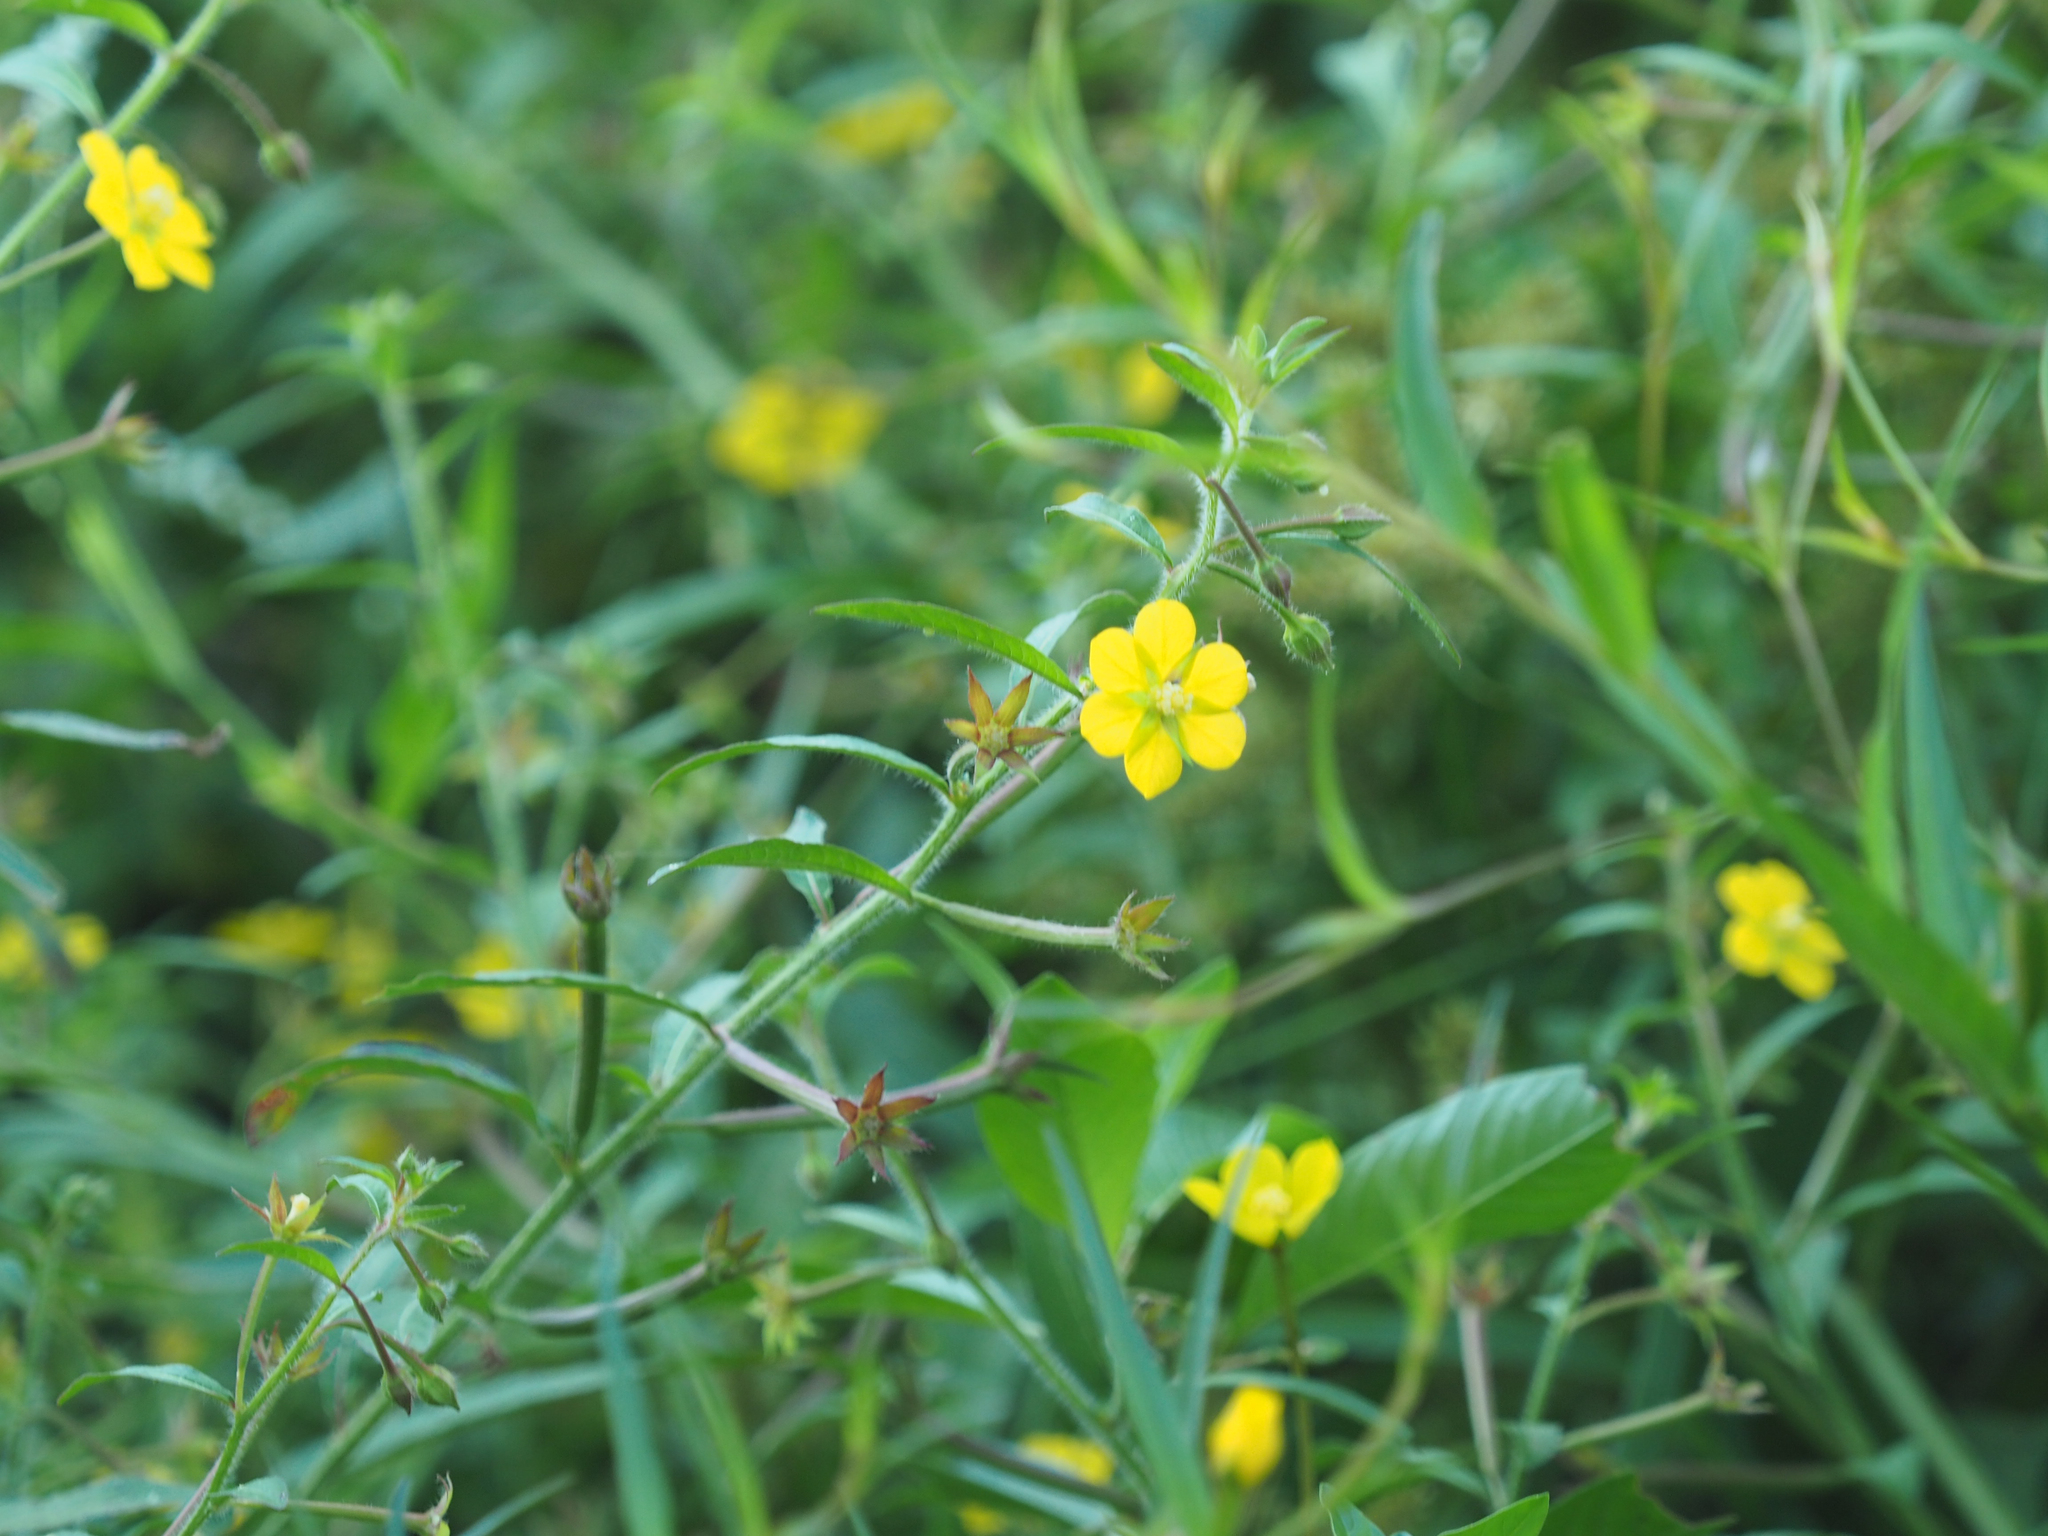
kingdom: Plantae
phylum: Tracheophyta
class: Magnoliopsida
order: Myrtales
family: Onagraceae
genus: Ludwigia
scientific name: Ludwigia leptocarpa
